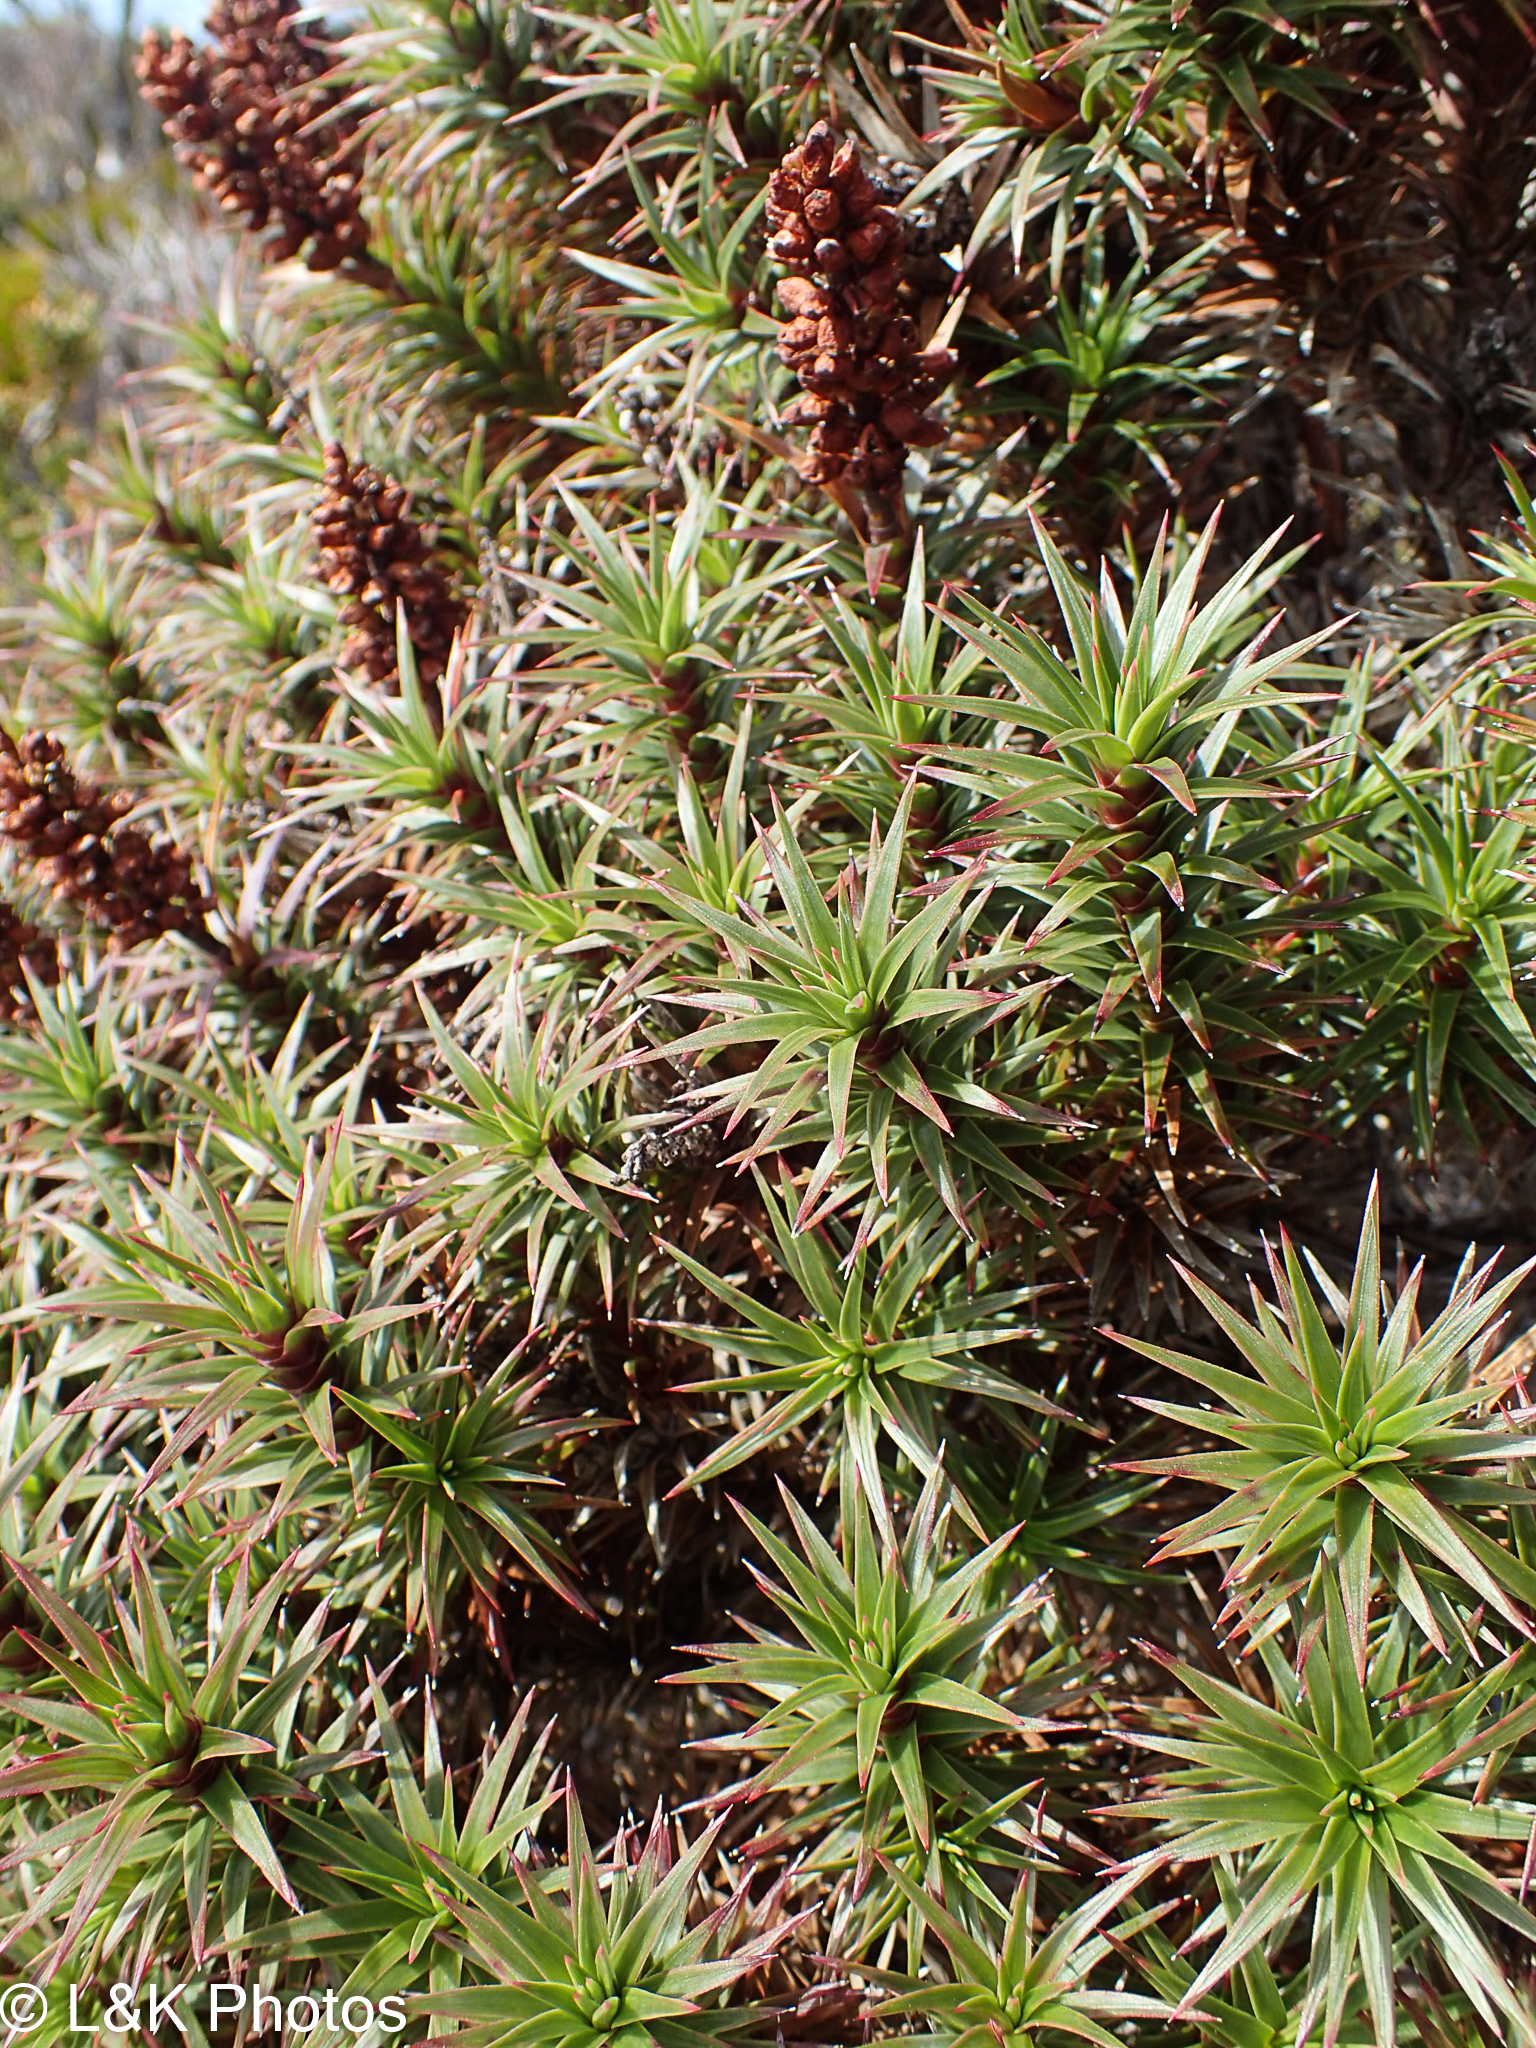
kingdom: Plantae
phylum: Tracheophyta
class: Magnoliopsida
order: Ericales
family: Ericaceae
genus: Dracophyllum
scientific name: Dracophyllum persistentifolium
